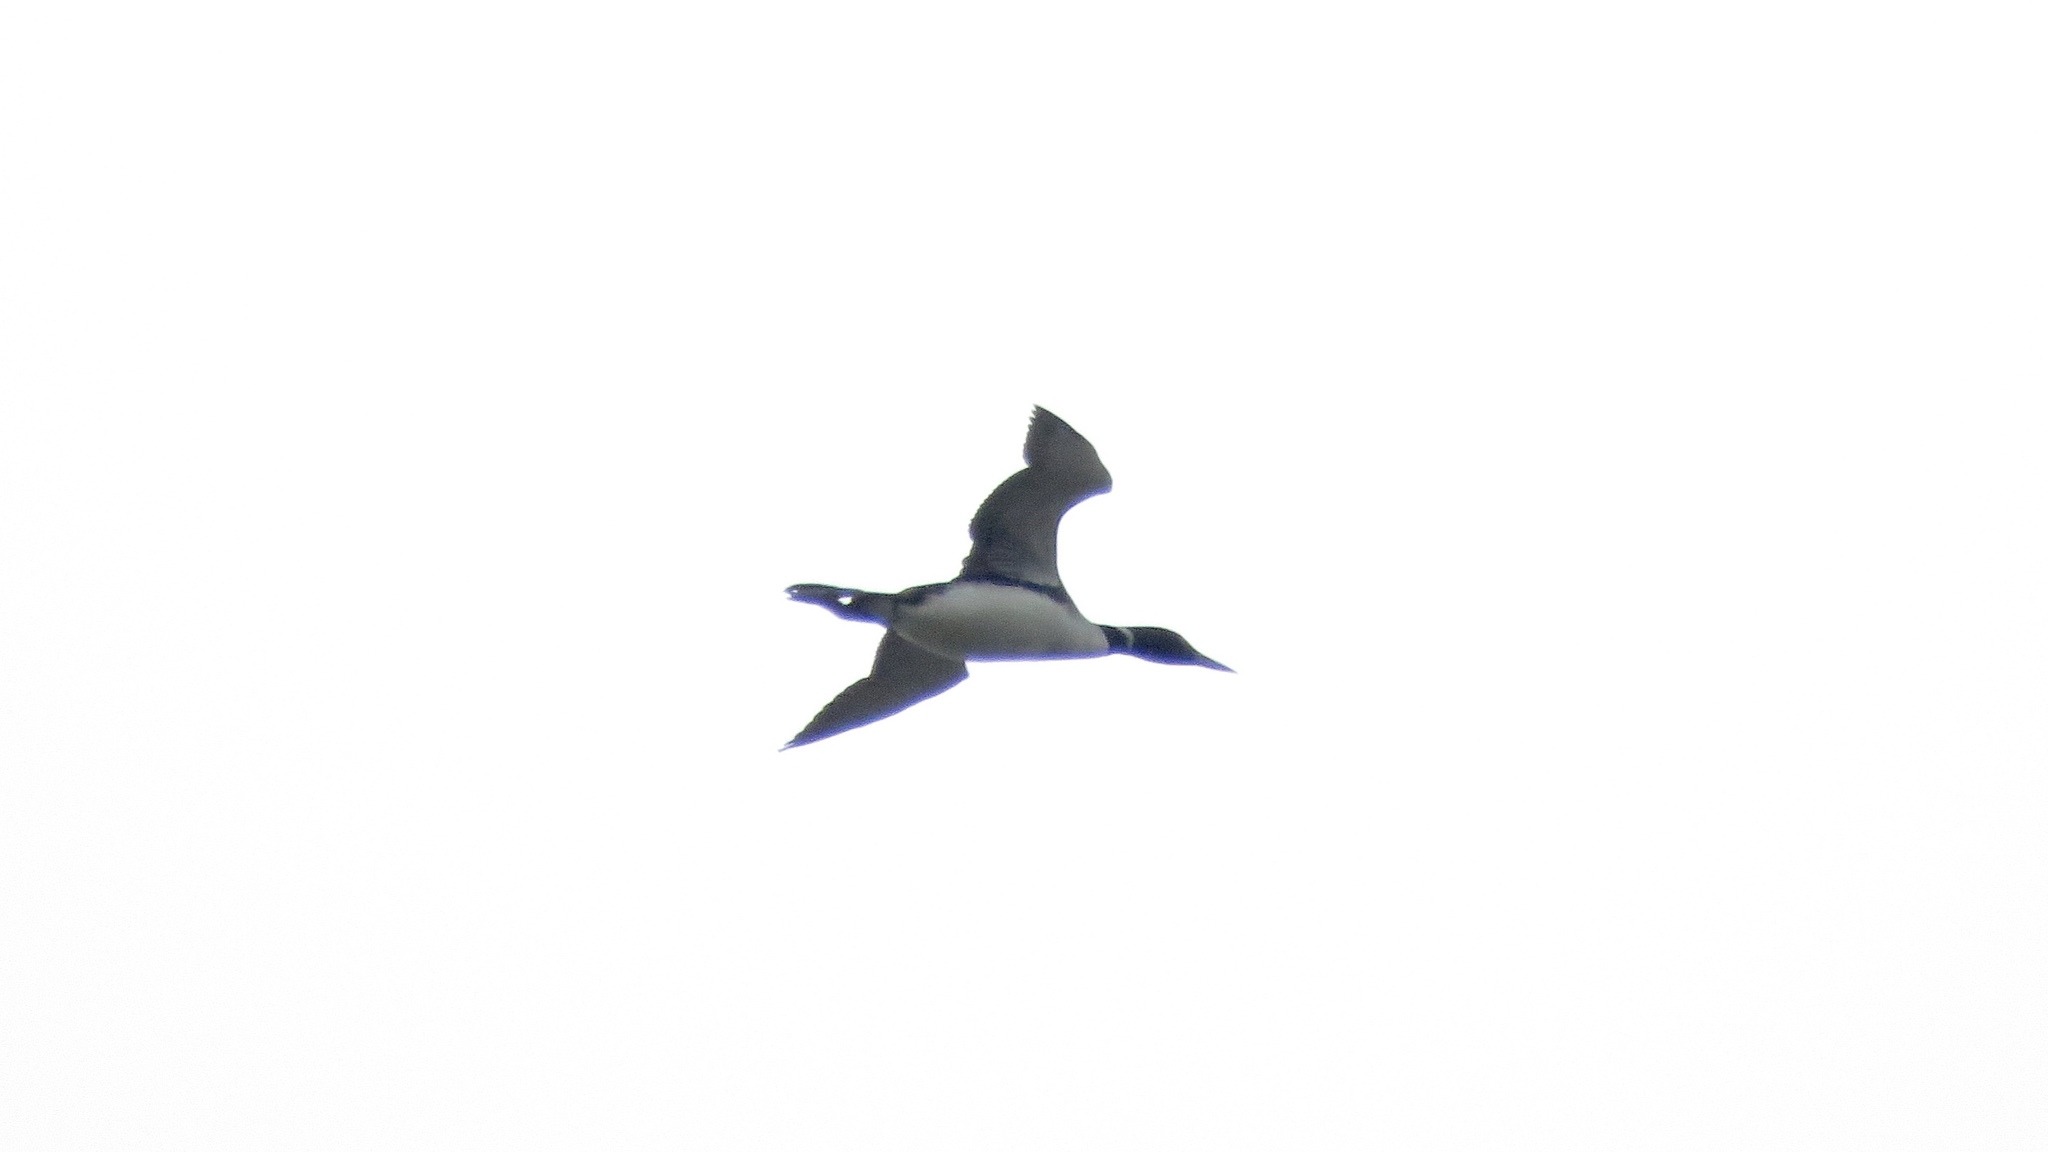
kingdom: Animalia
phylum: Chordata
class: Aves
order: Gaviiformes
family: Gaviidae
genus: Gavia
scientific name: Gavia immer
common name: Common loon
